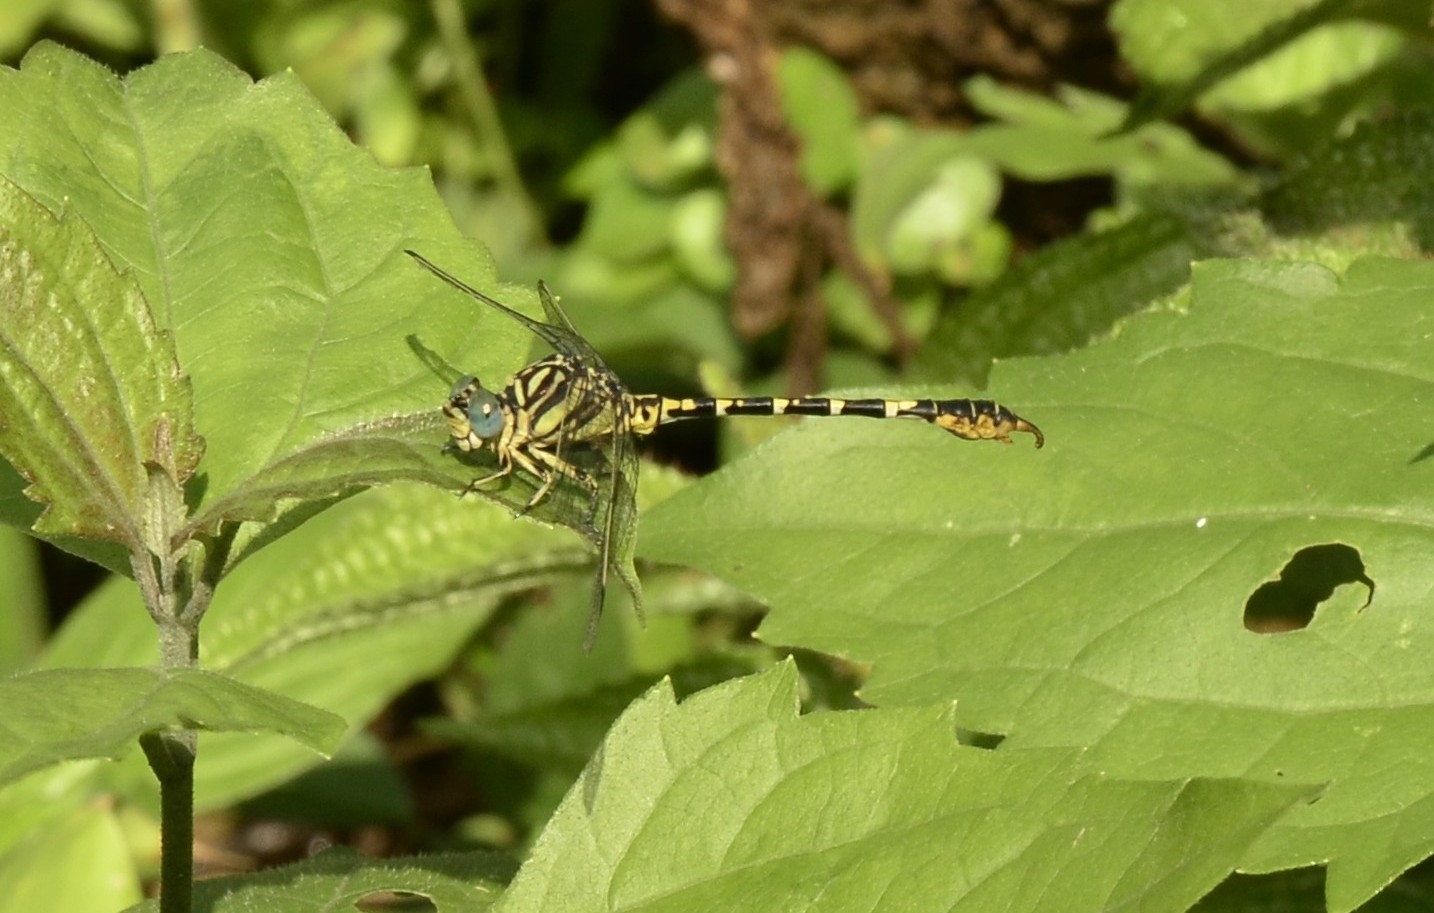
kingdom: Animalia
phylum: Arthropoda
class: Insecta
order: Odonata
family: Gomphidae
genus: Paragomphus
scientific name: Paragomphus lineatus
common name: Lined hooktail
